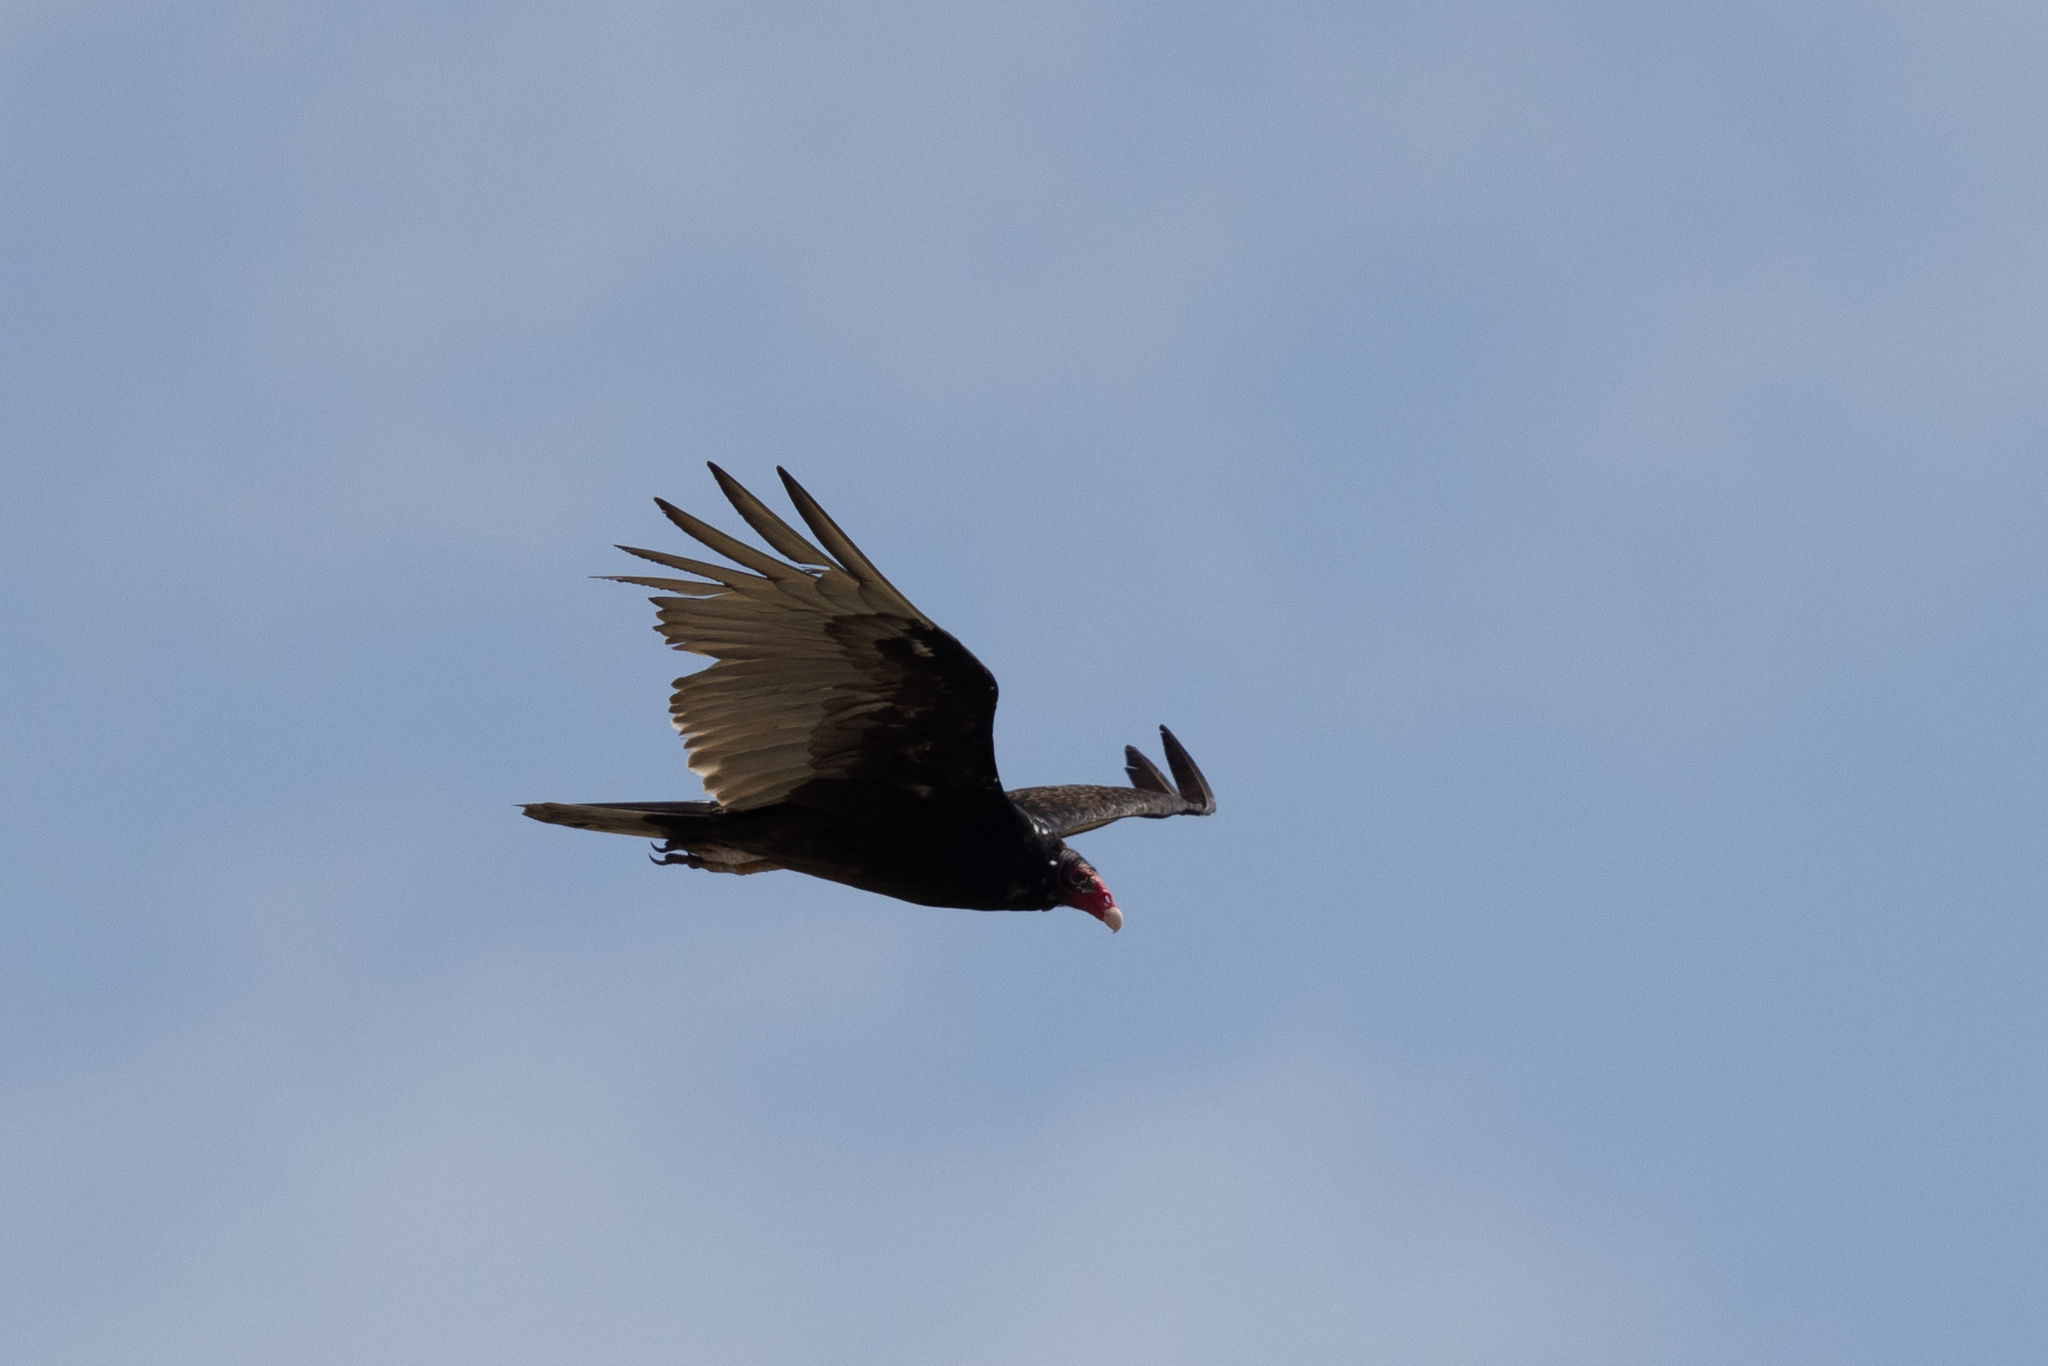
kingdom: Animalia
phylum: Chordata
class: Aves
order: Accipitriformes
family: Cathartidae
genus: Cathartes
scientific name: Cathartes aura
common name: Turkey vulture
